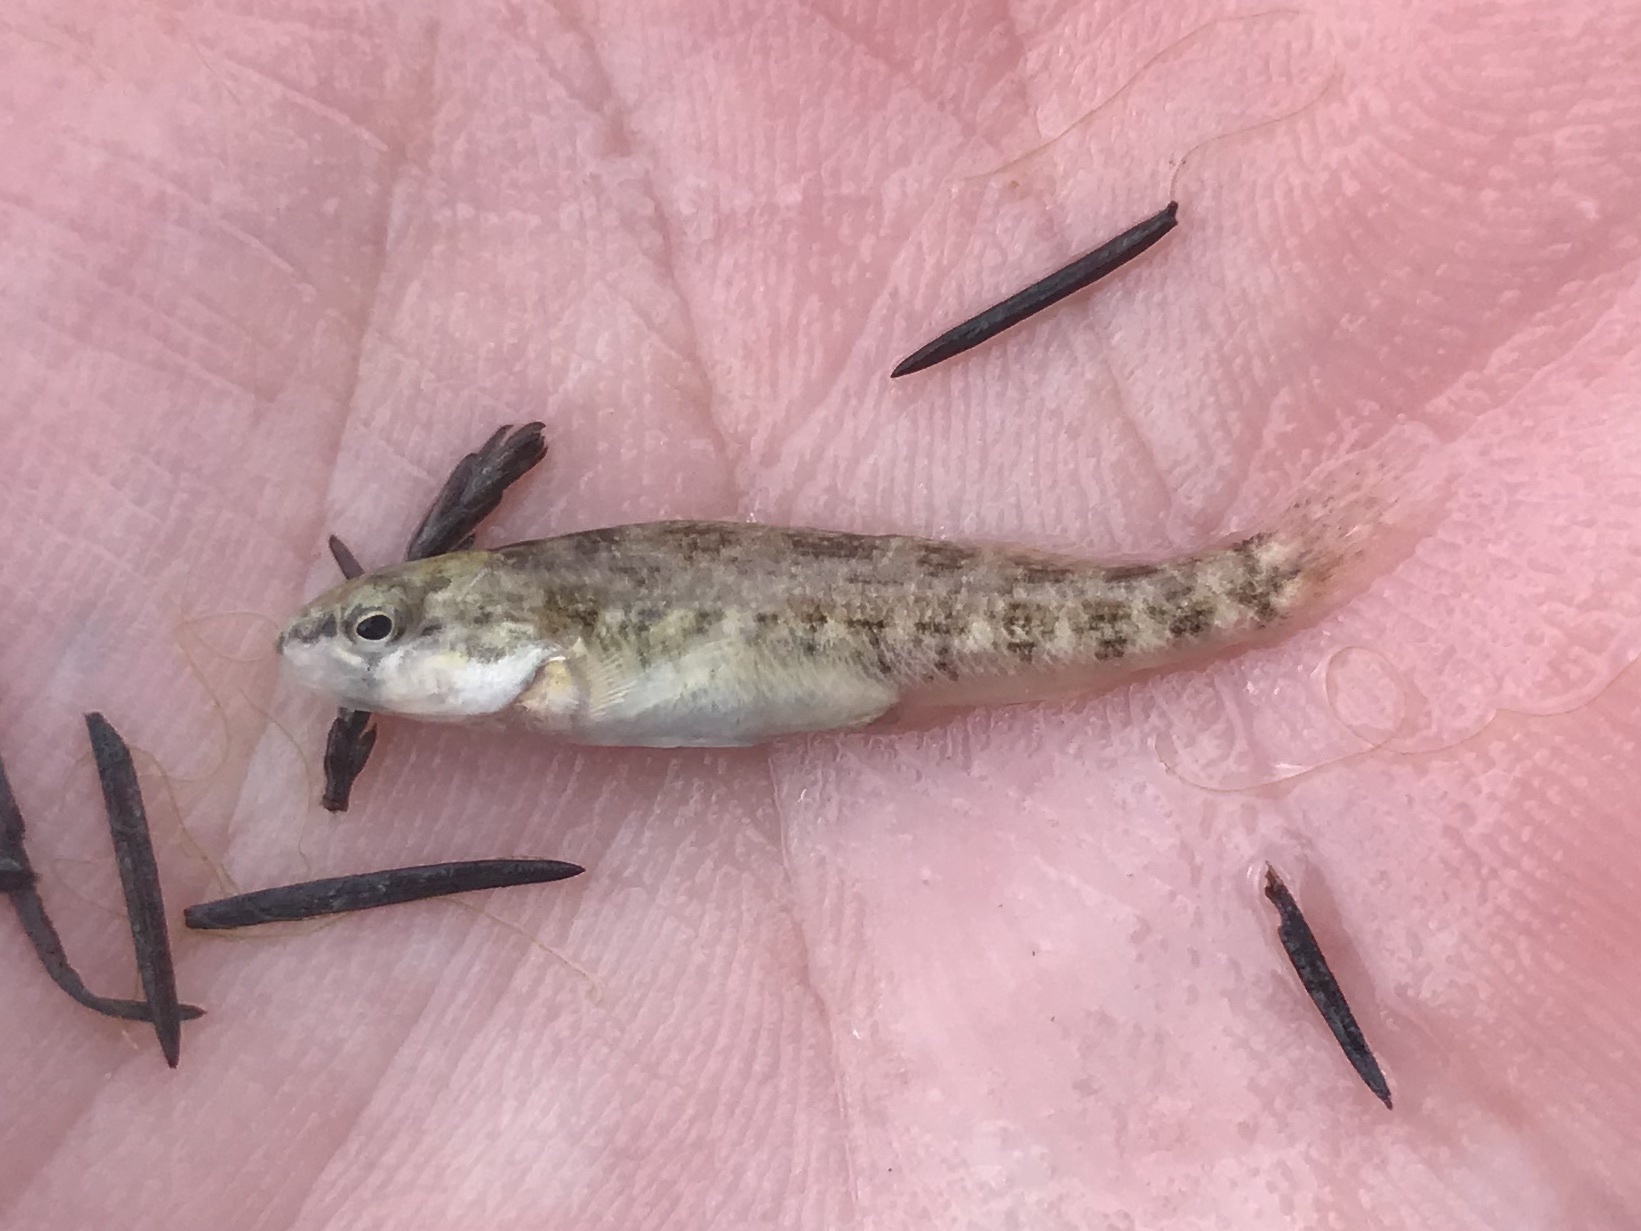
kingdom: Animalia
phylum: Chordata
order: Perciformes
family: Percidae
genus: Etheostoma
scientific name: Etheostoma spectabile
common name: Orangethroat darter
